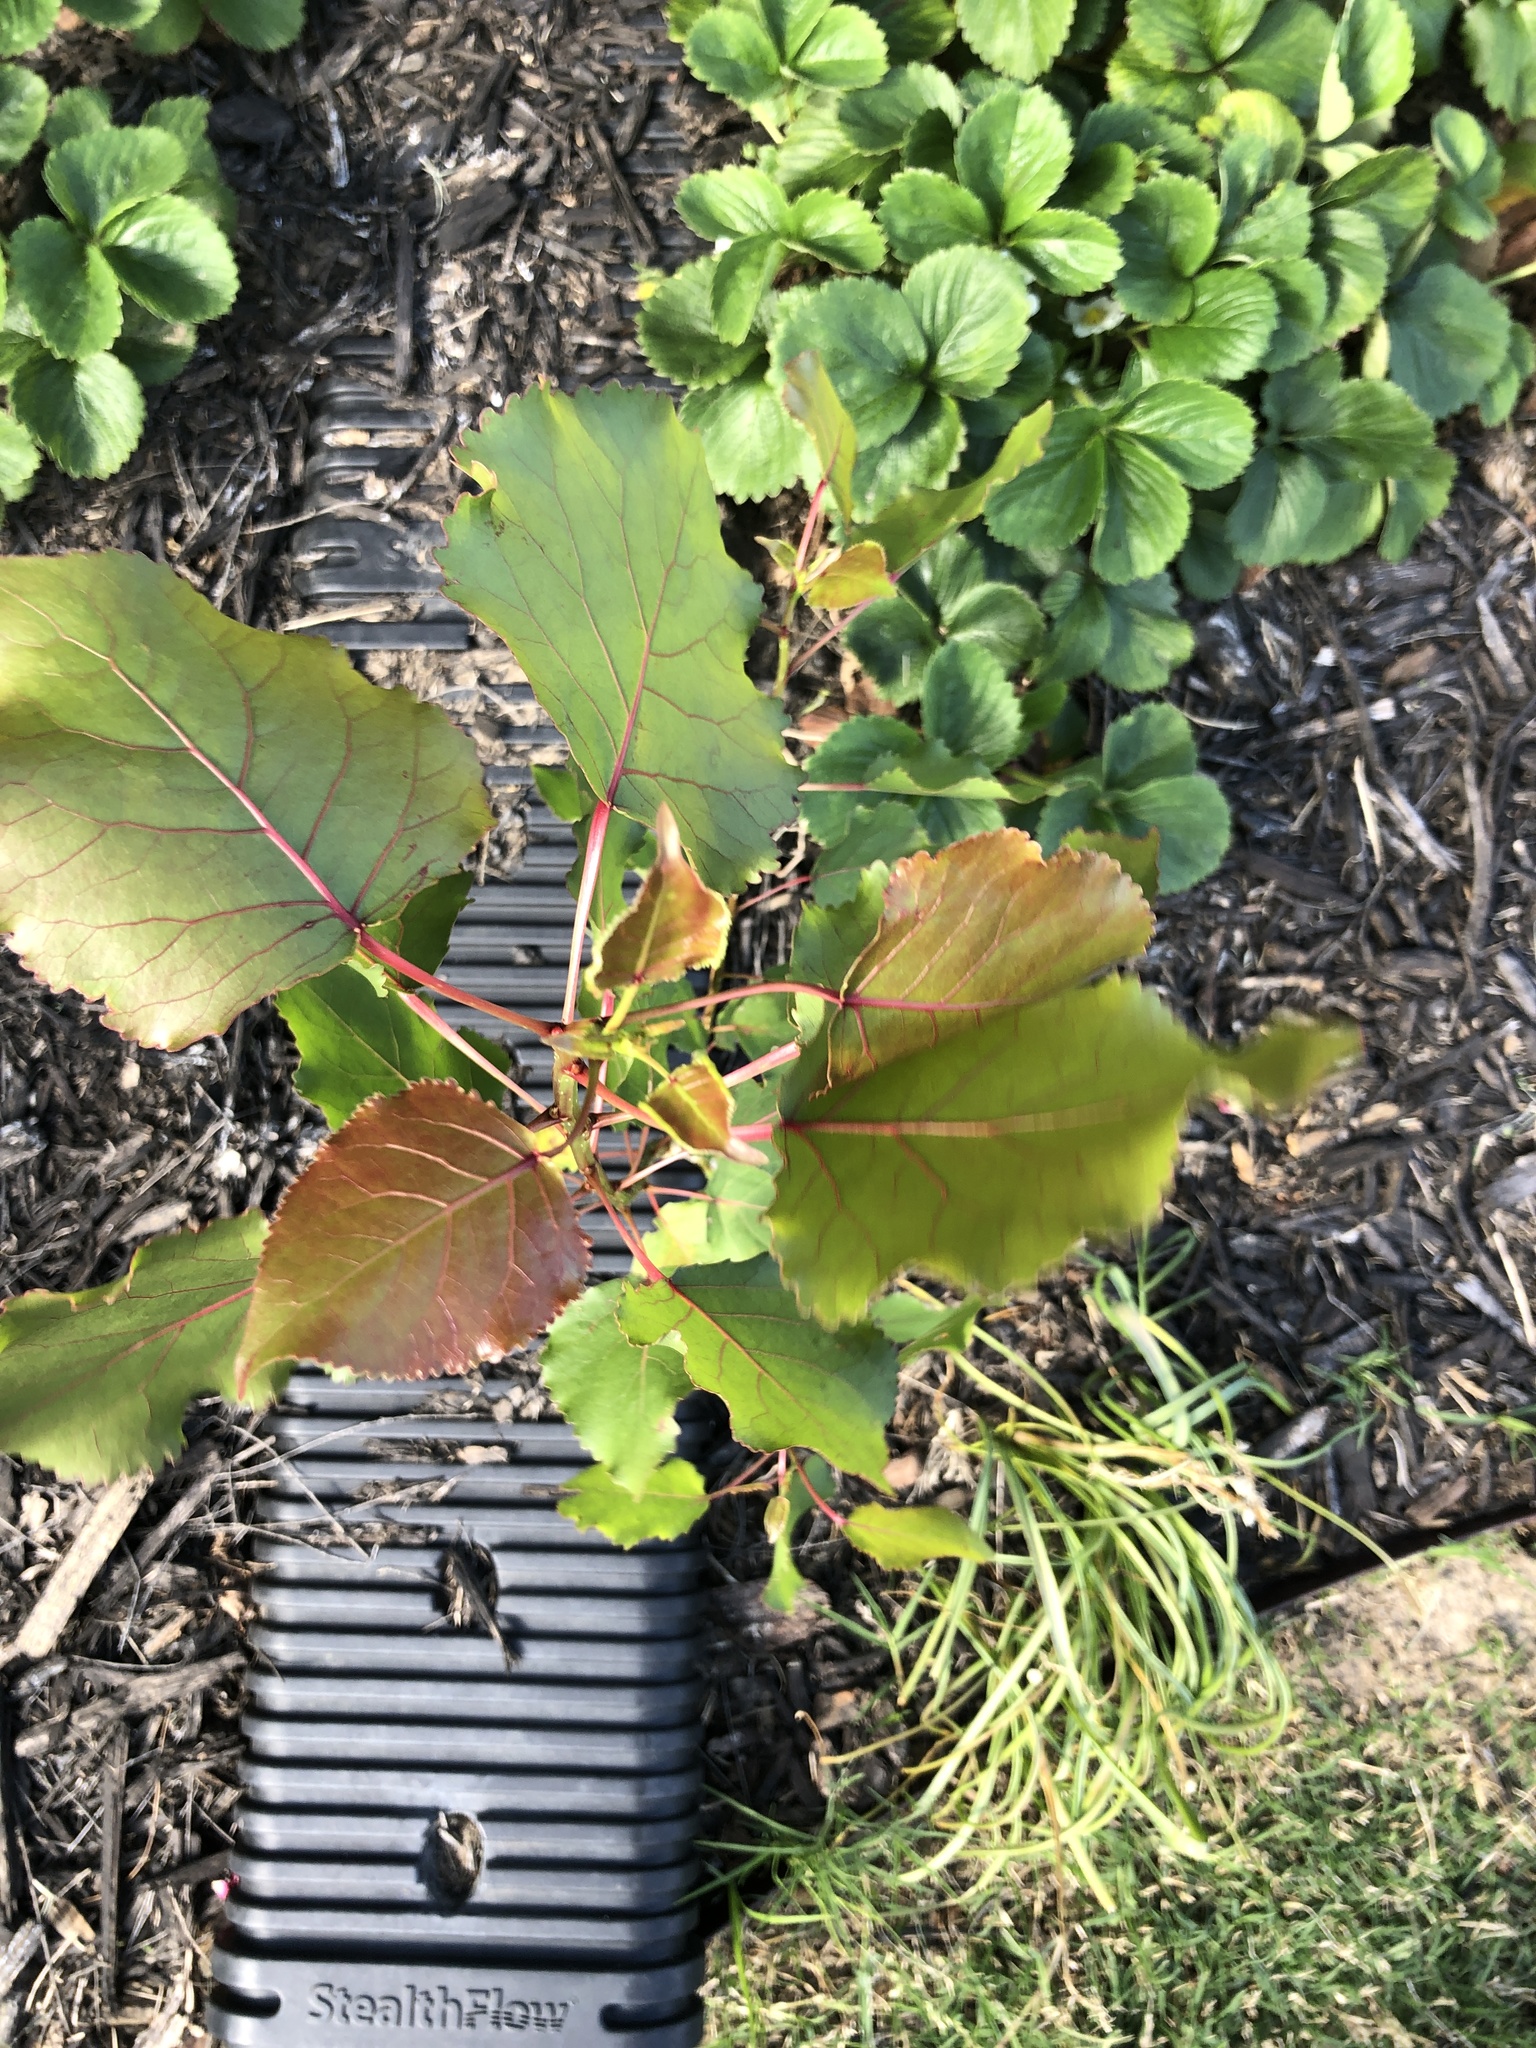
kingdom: Plantae
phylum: Tracheophyta
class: Magnoliopsida
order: Malpighiales
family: Salicaceae
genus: Populus
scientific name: Populus deltoides
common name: Eastern cottonwood
